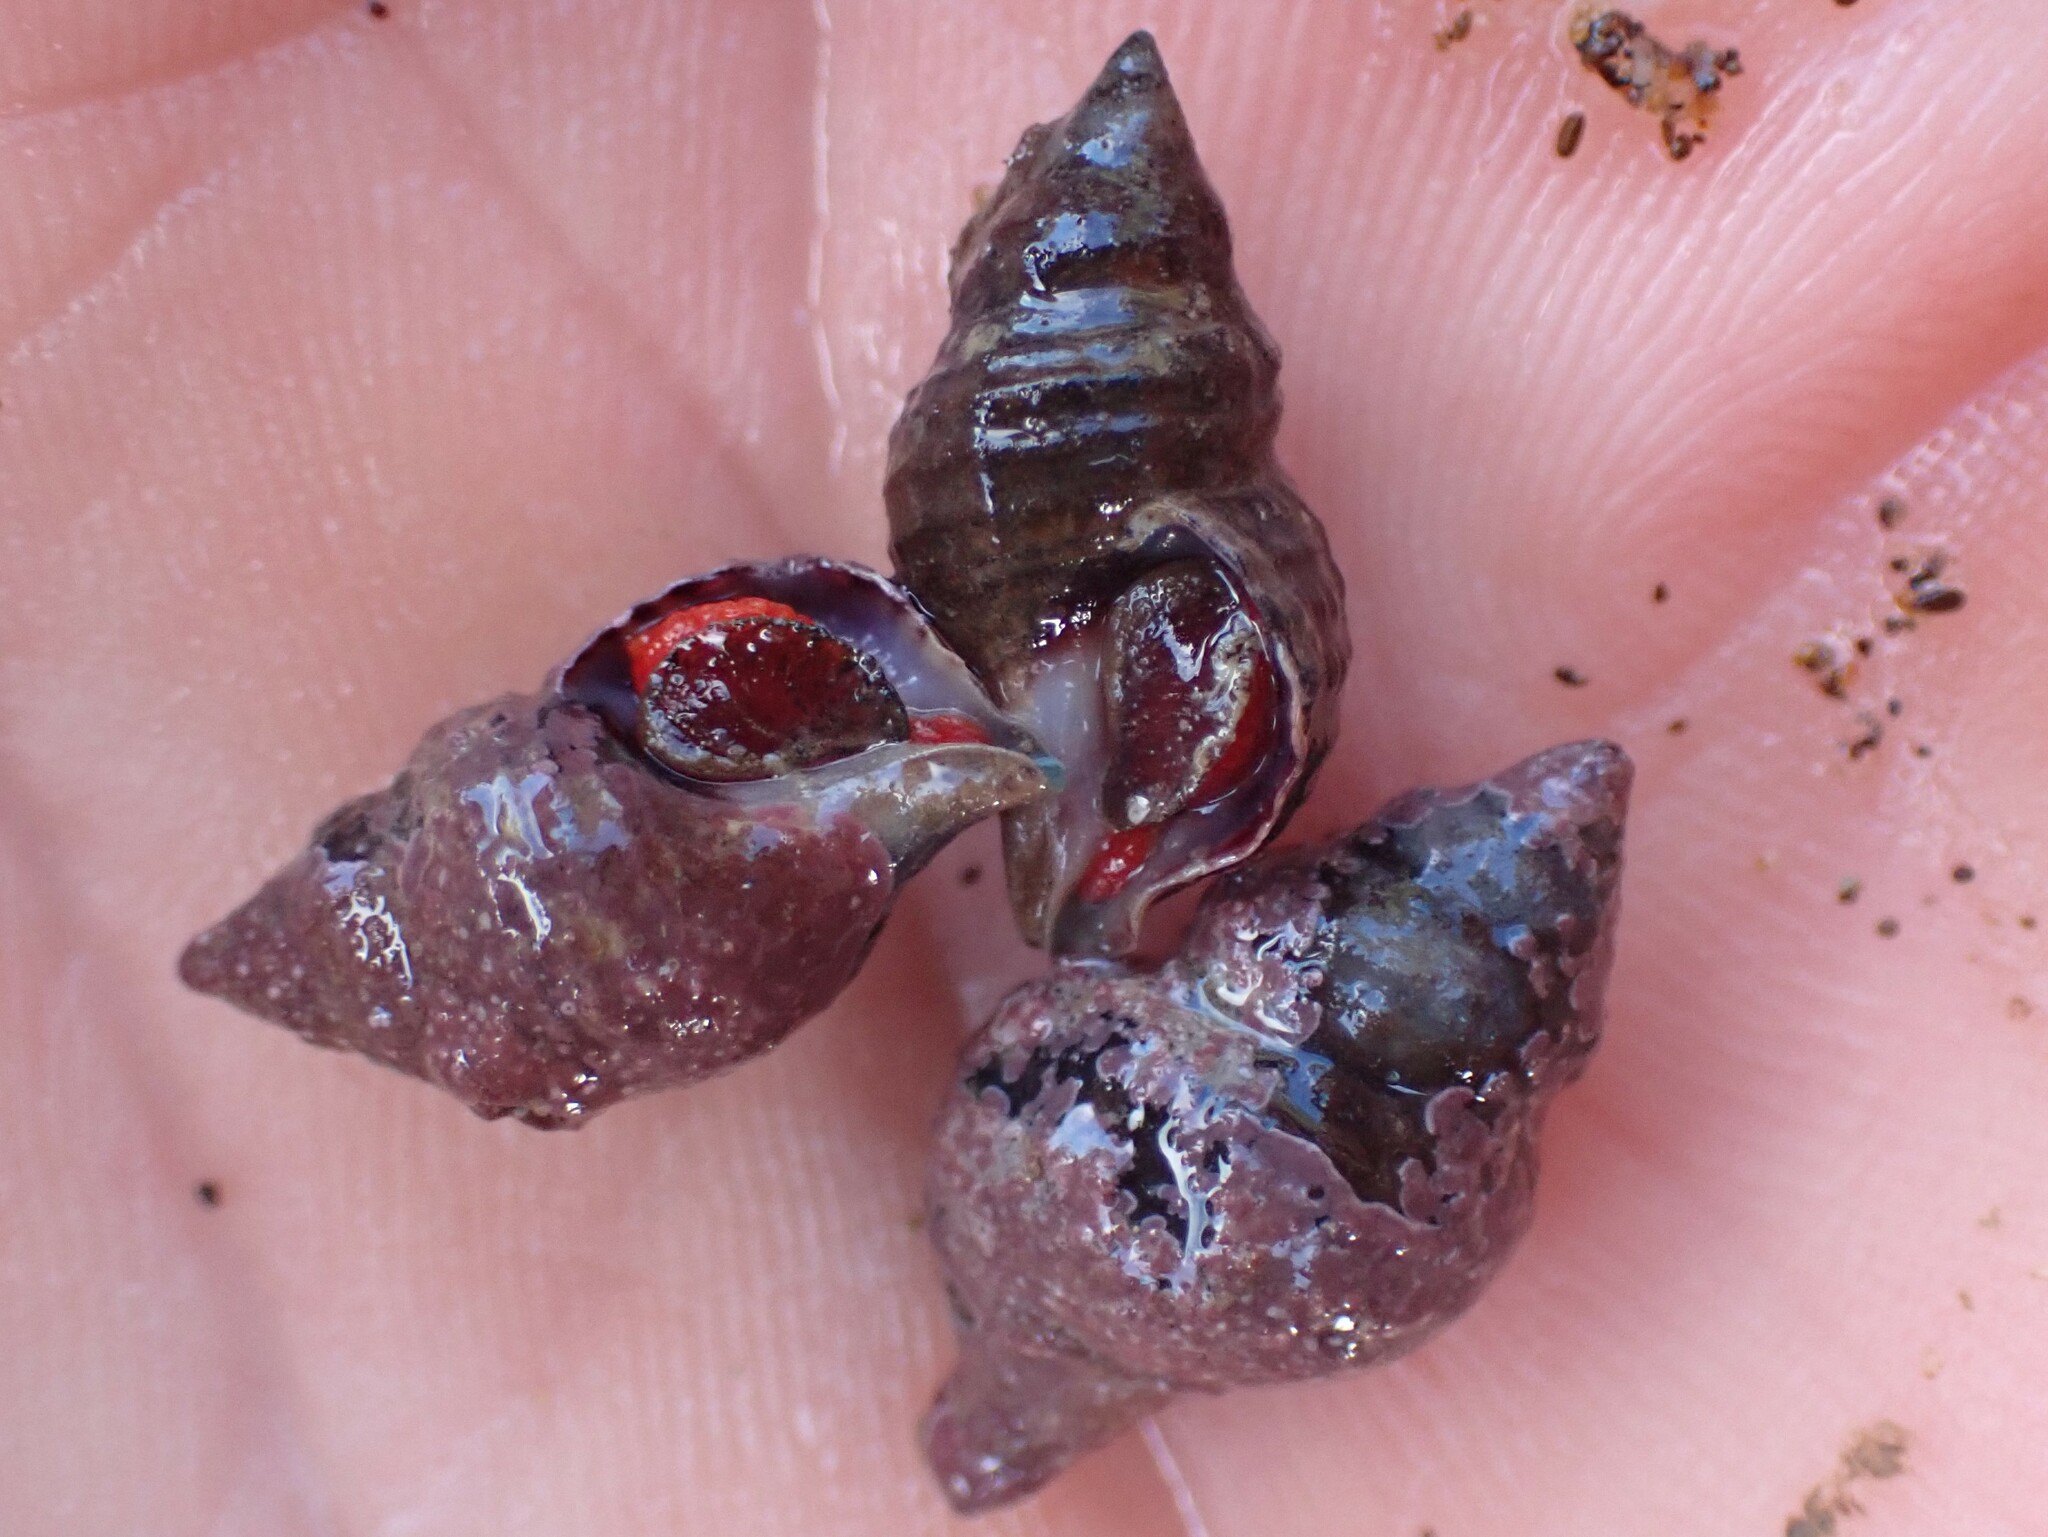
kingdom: Animalia
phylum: Mollusca
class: Gastropoda
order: Neogastropoda
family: Fasciolariidae
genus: Taron
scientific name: Taron dubius
